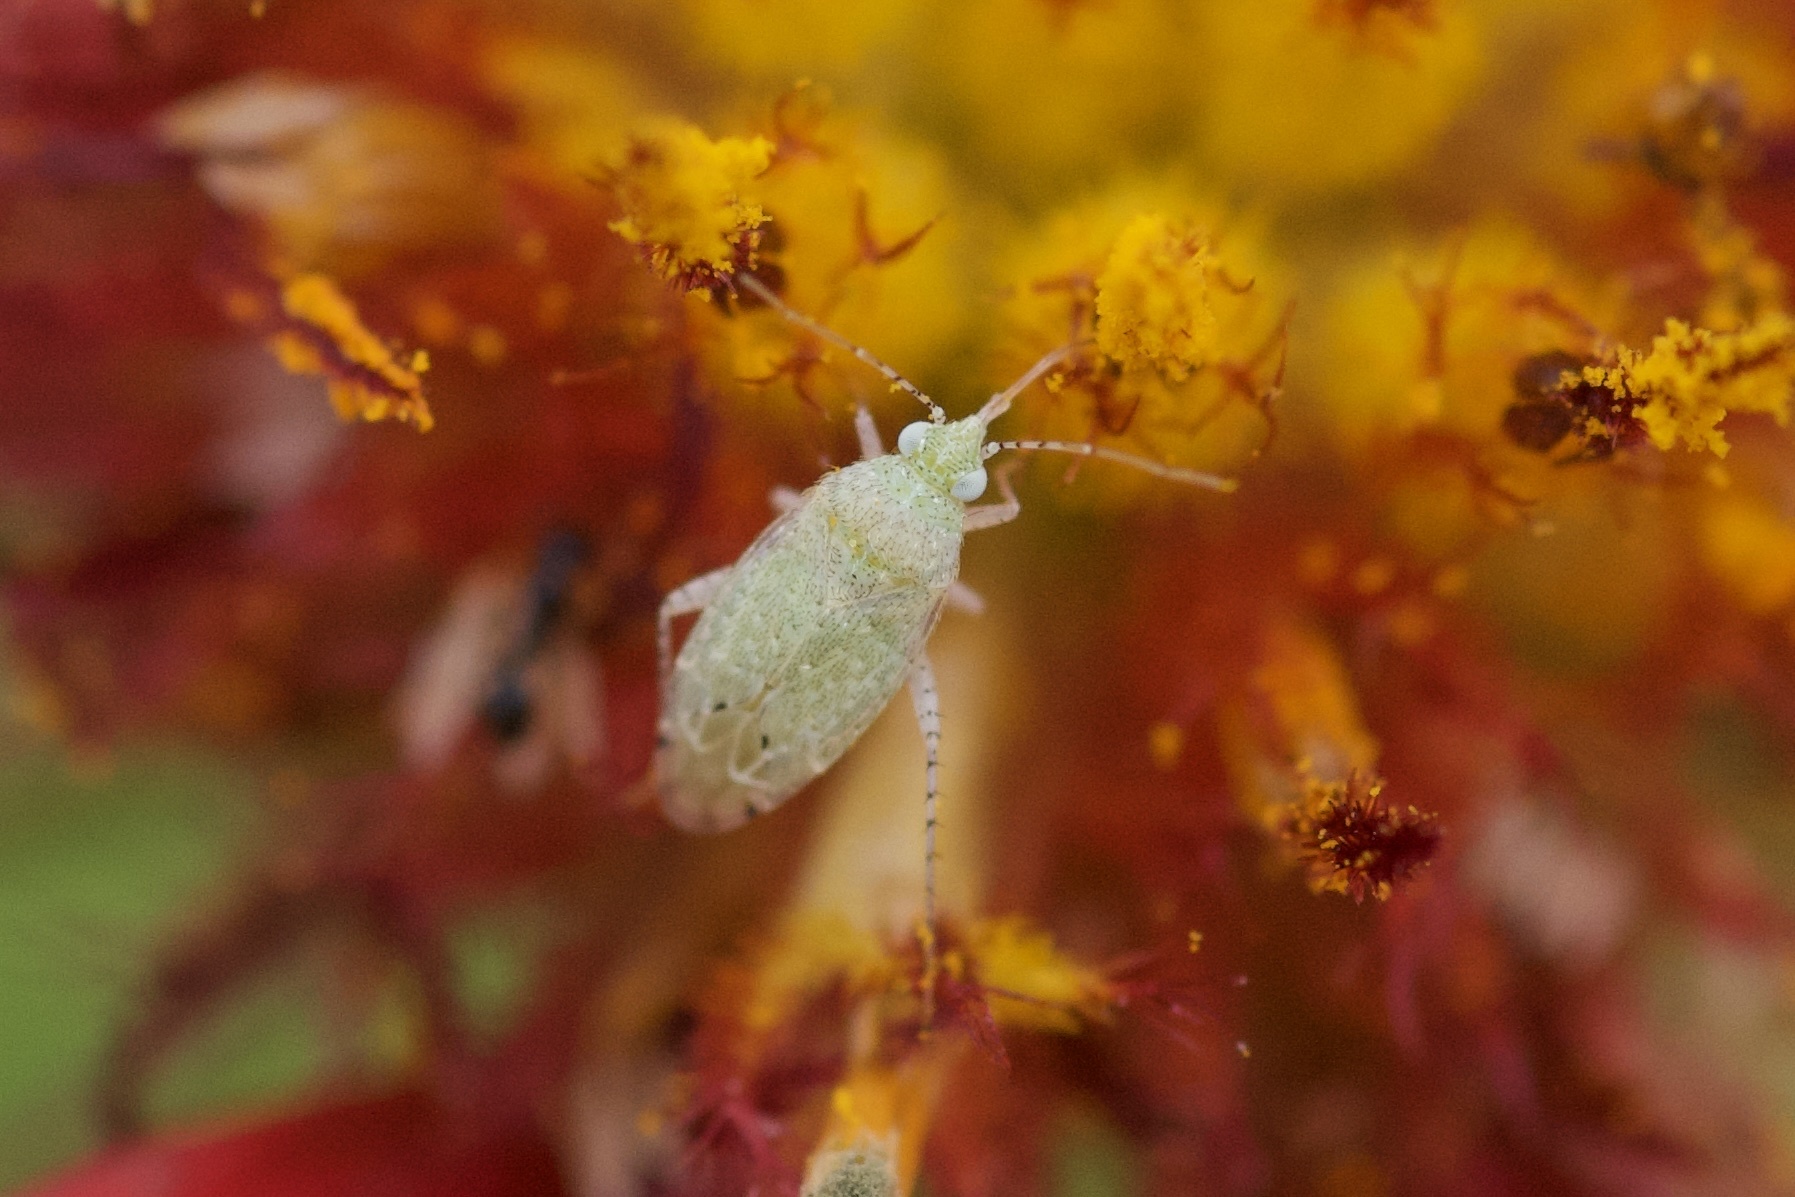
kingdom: Animalia
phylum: Arthropoda
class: Insecta
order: Hemiptera
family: Miridae
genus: Pseudatomoscelis
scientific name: Pseudatomoscelis seriatus
